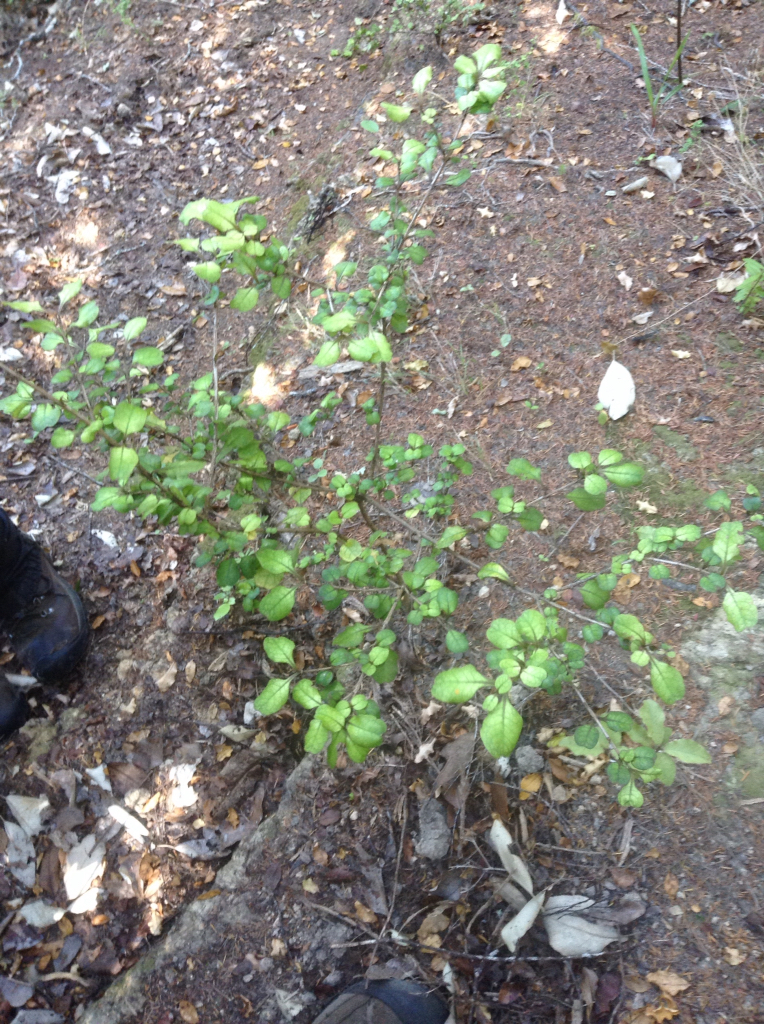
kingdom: Plantae
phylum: Tracheophyta
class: Magnoliopsida
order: Gentianales
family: Rubiaceae
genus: Coprosma
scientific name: Coprosma spathulata
